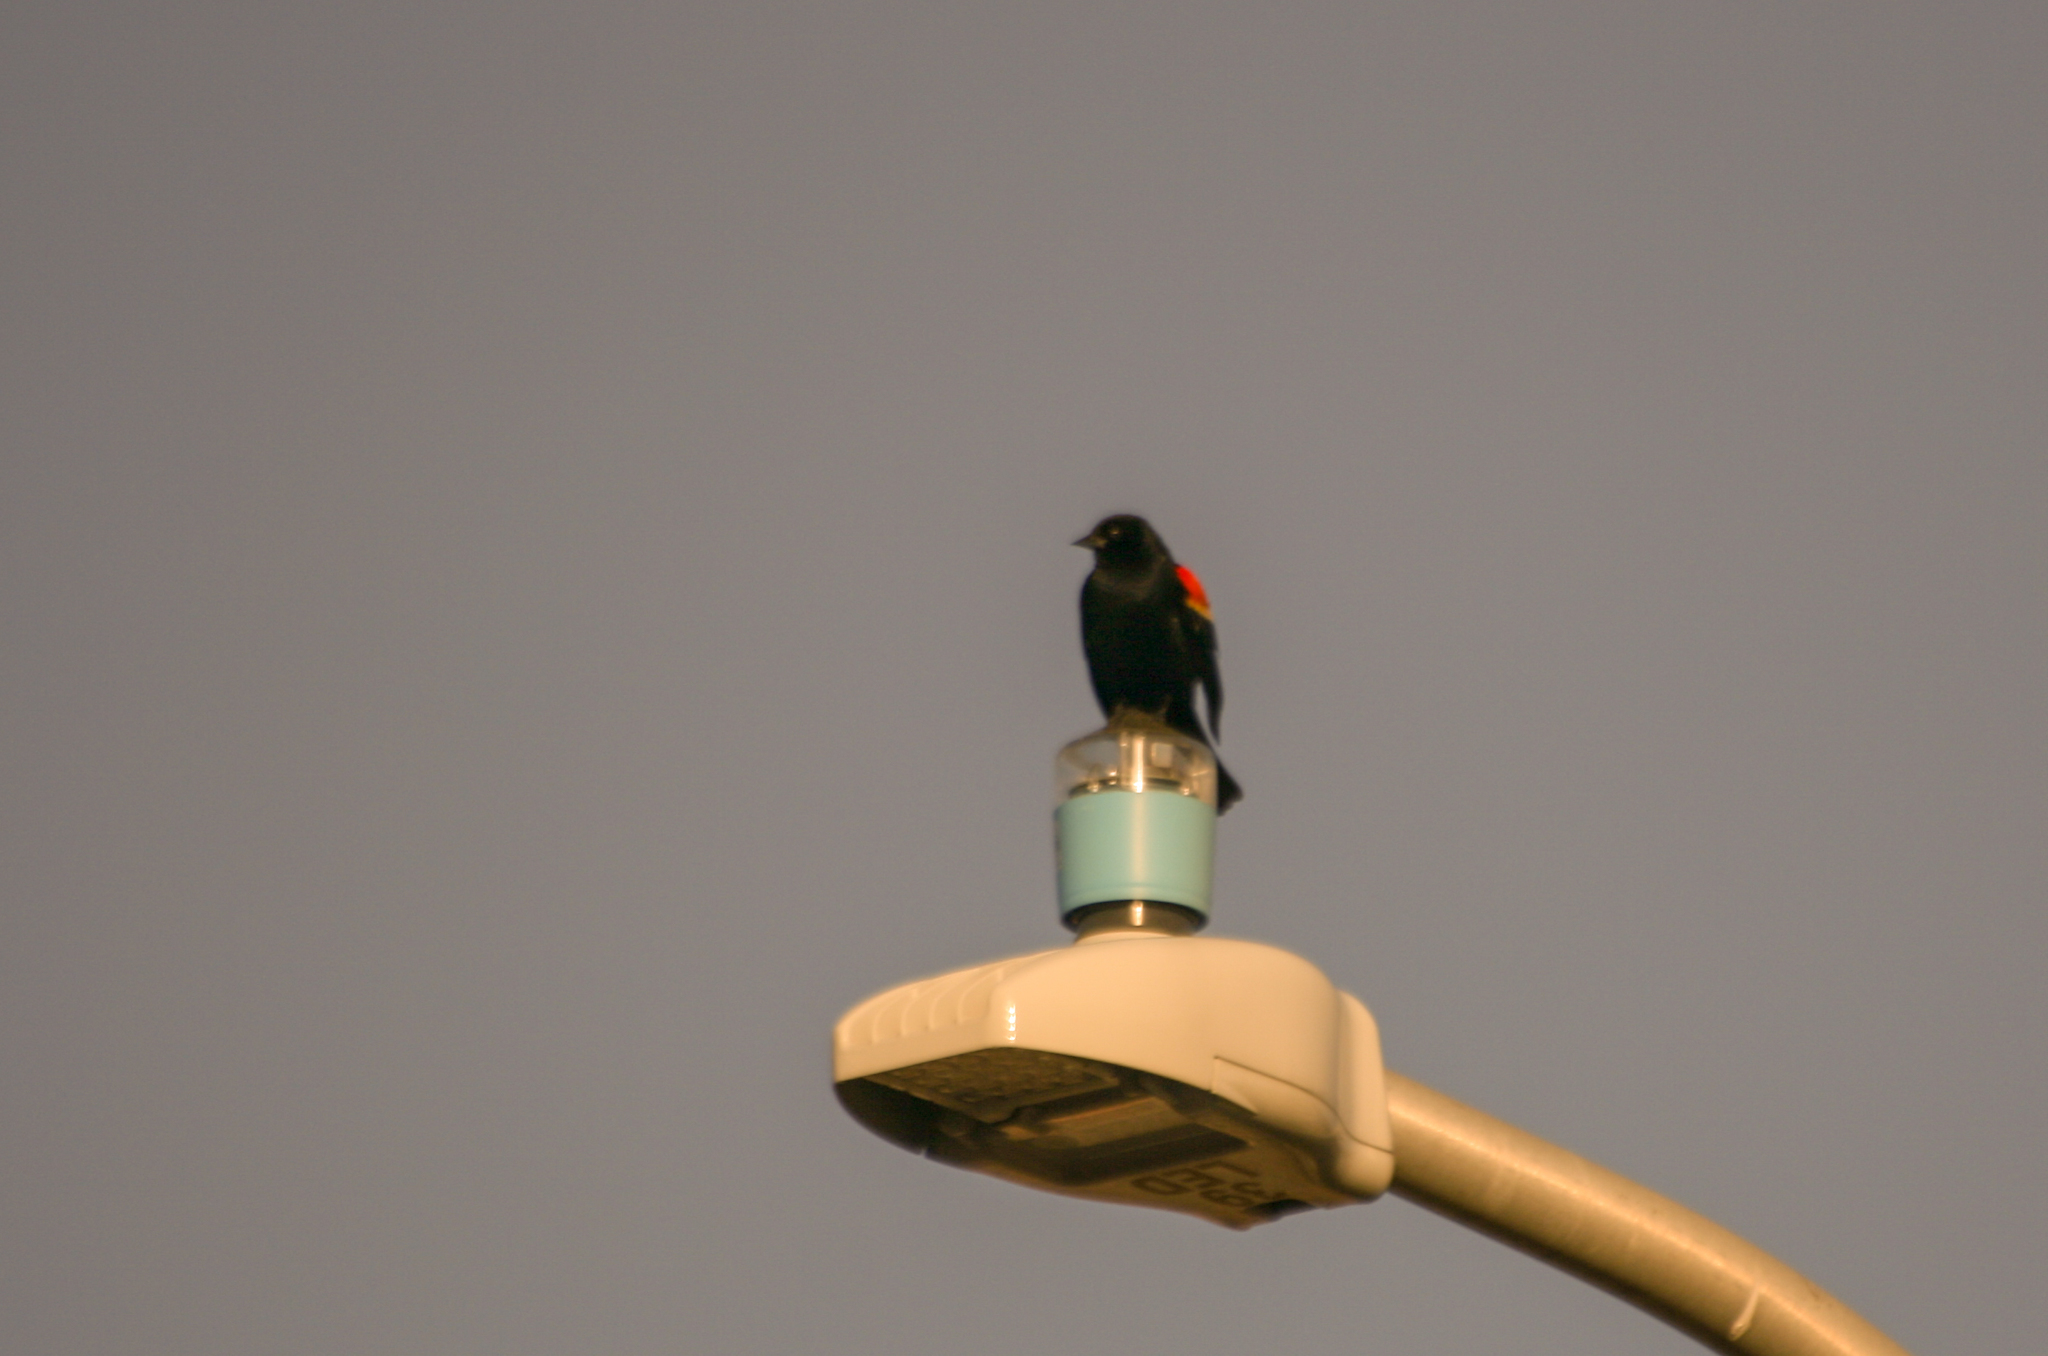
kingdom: Animalia
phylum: Chordata
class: Aves
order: Passeriformes
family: Icteridae
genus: Agelaius
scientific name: Agelaius phoeniceus
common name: Red-winged blackbird
